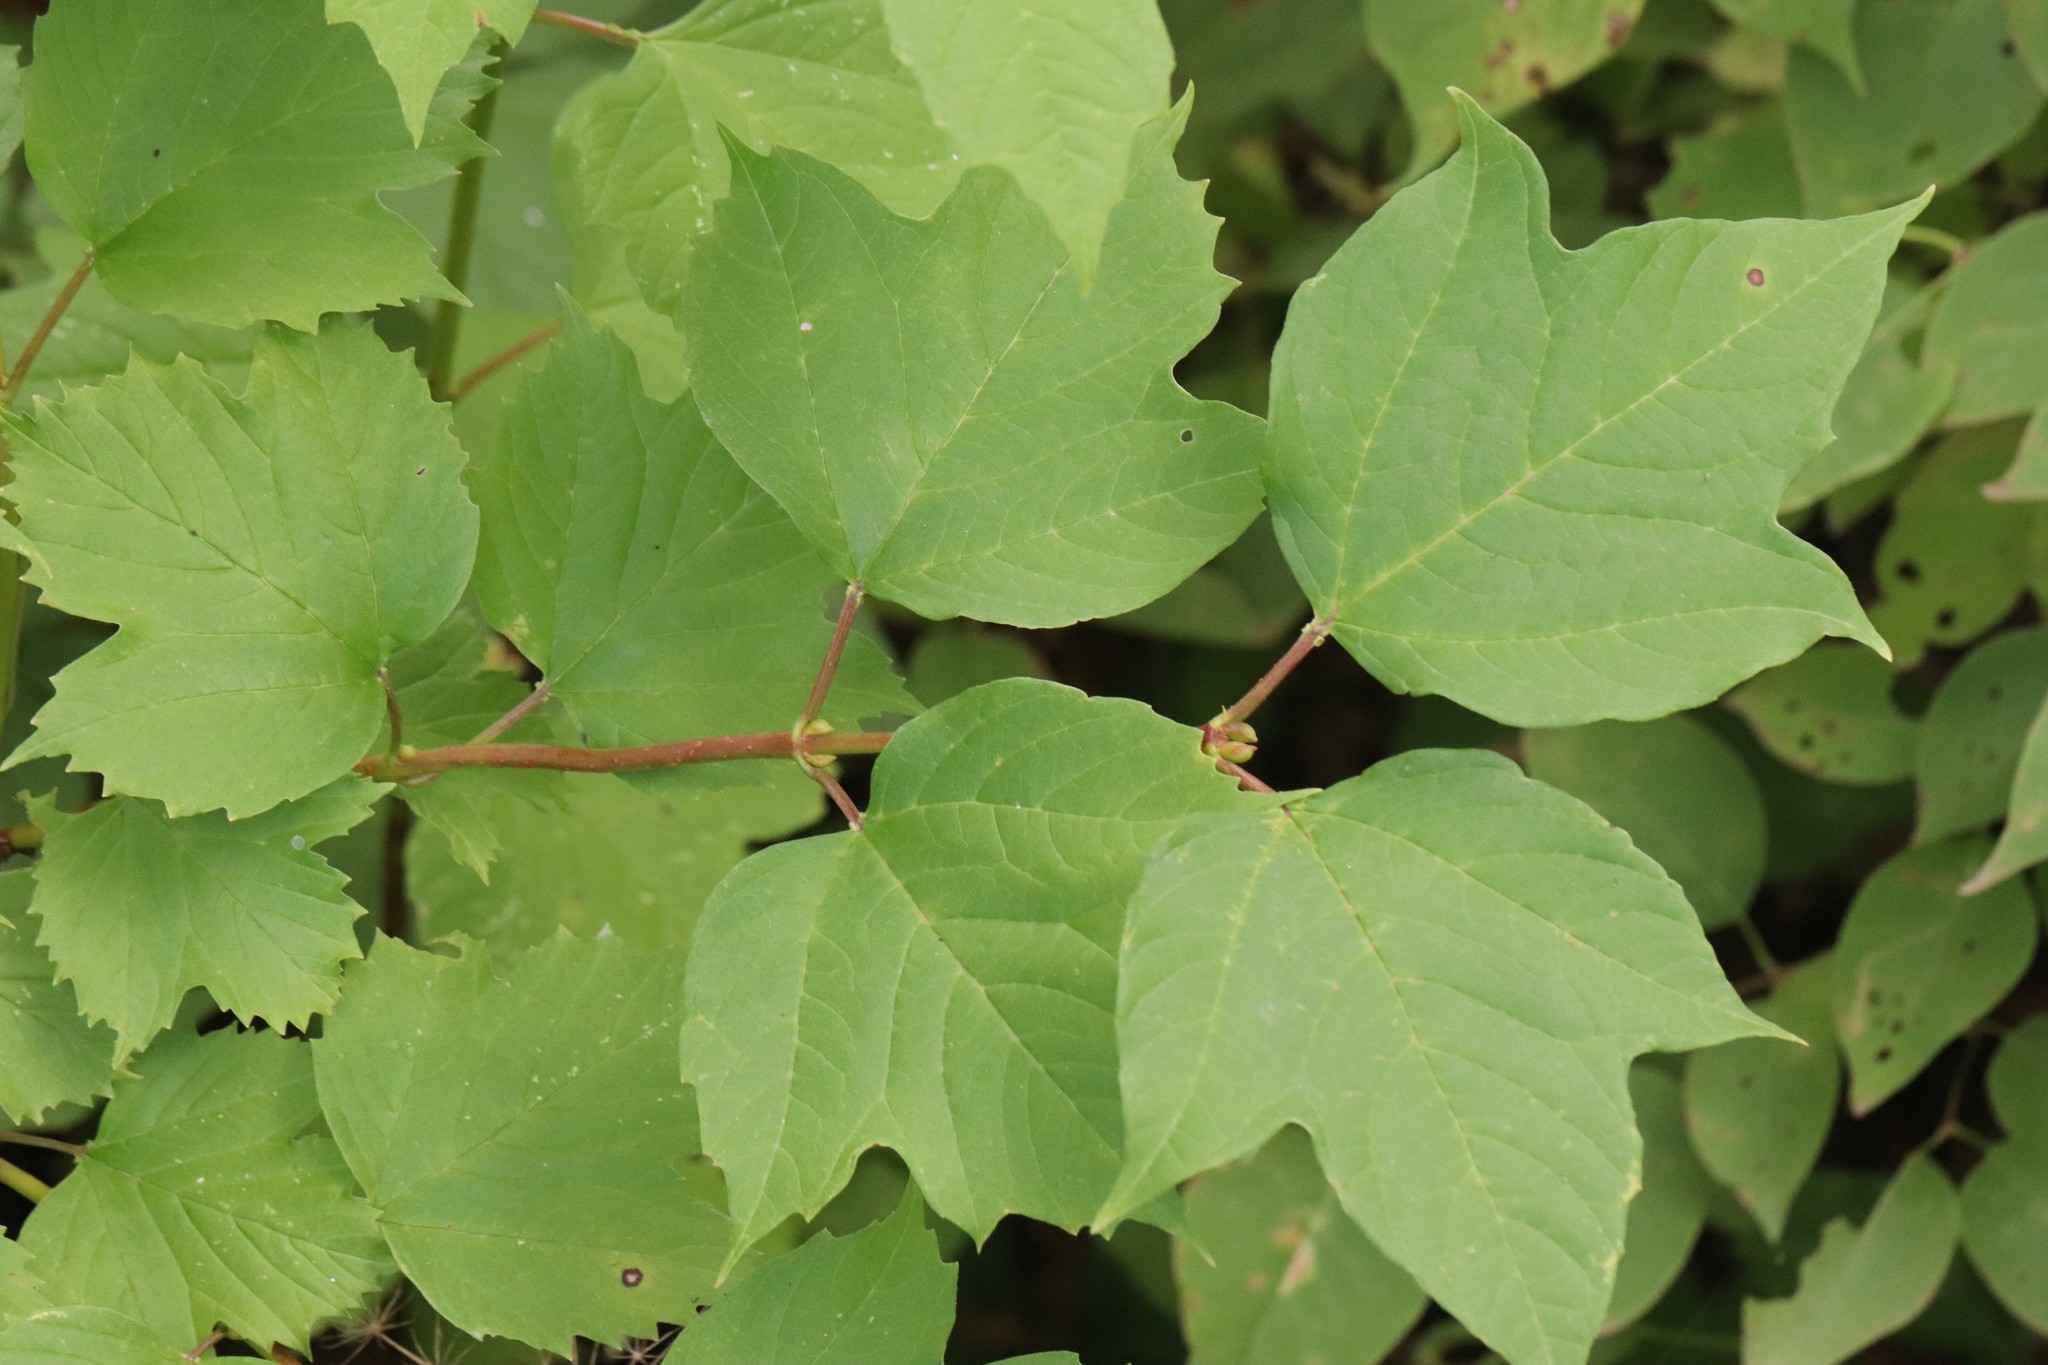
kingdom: Plantae
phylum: Tracheophyta
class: Magnoliopsida
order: Dipsacales
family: Viburnaceae
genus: Viburnum
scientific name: Viburnum sargentii
